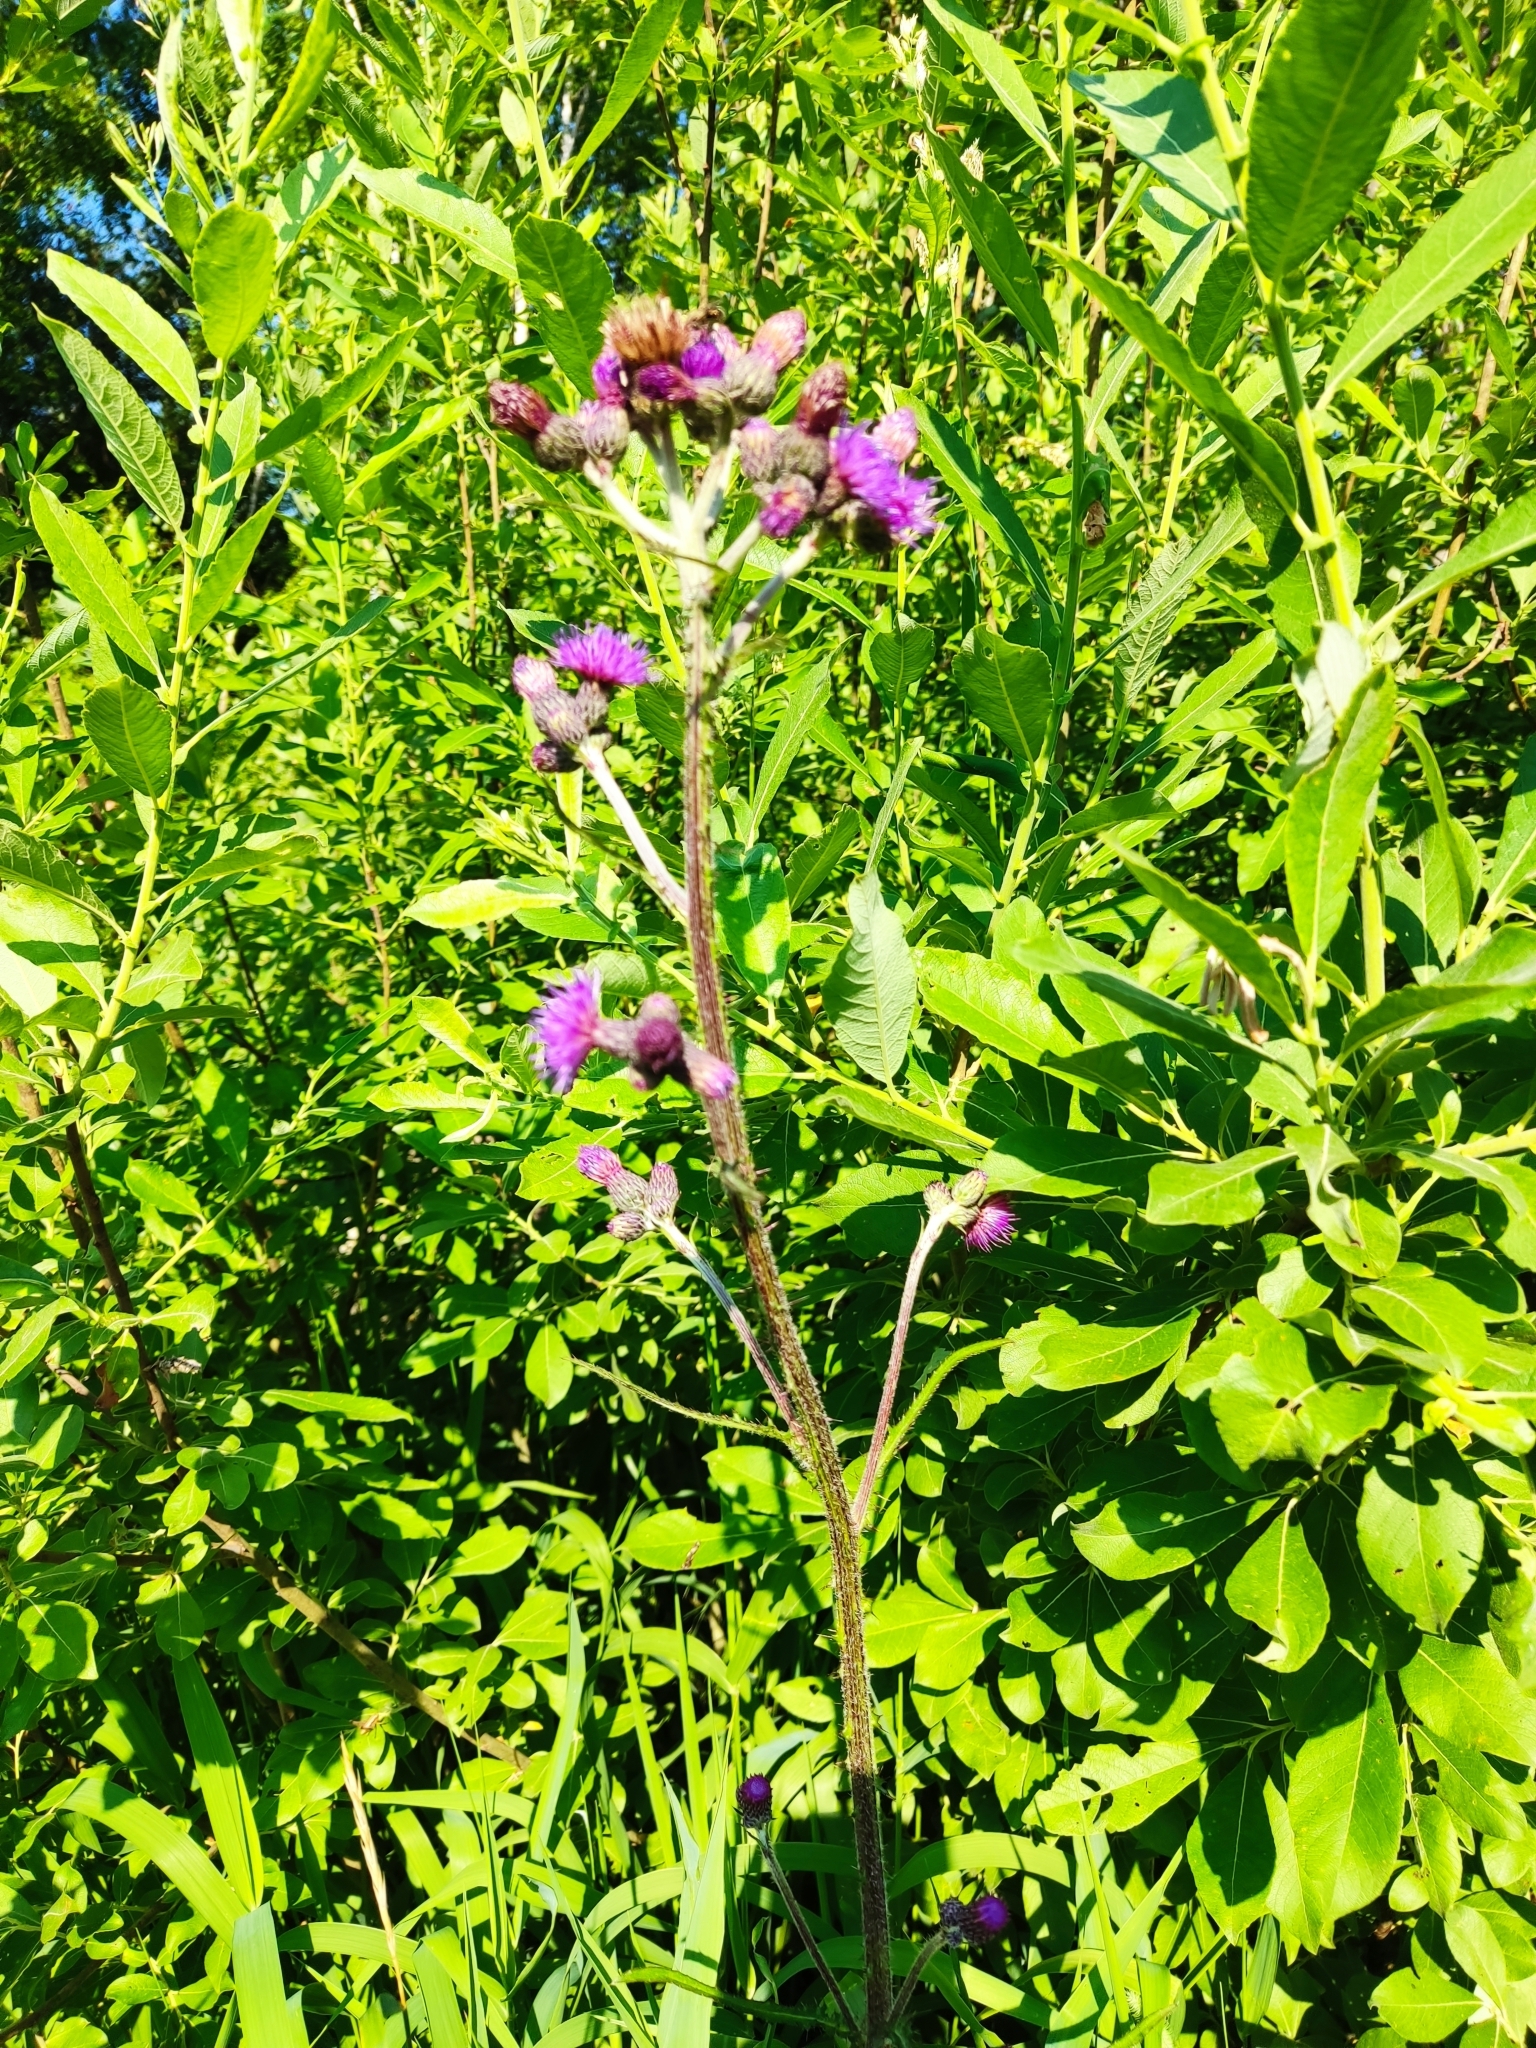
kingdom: Plantae
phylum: Tracheophyta
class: Magnoliopsida
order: Asterales
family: Asteraceae
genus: Cirsium
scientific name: Cirsium palustre
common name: Marsh thistle
